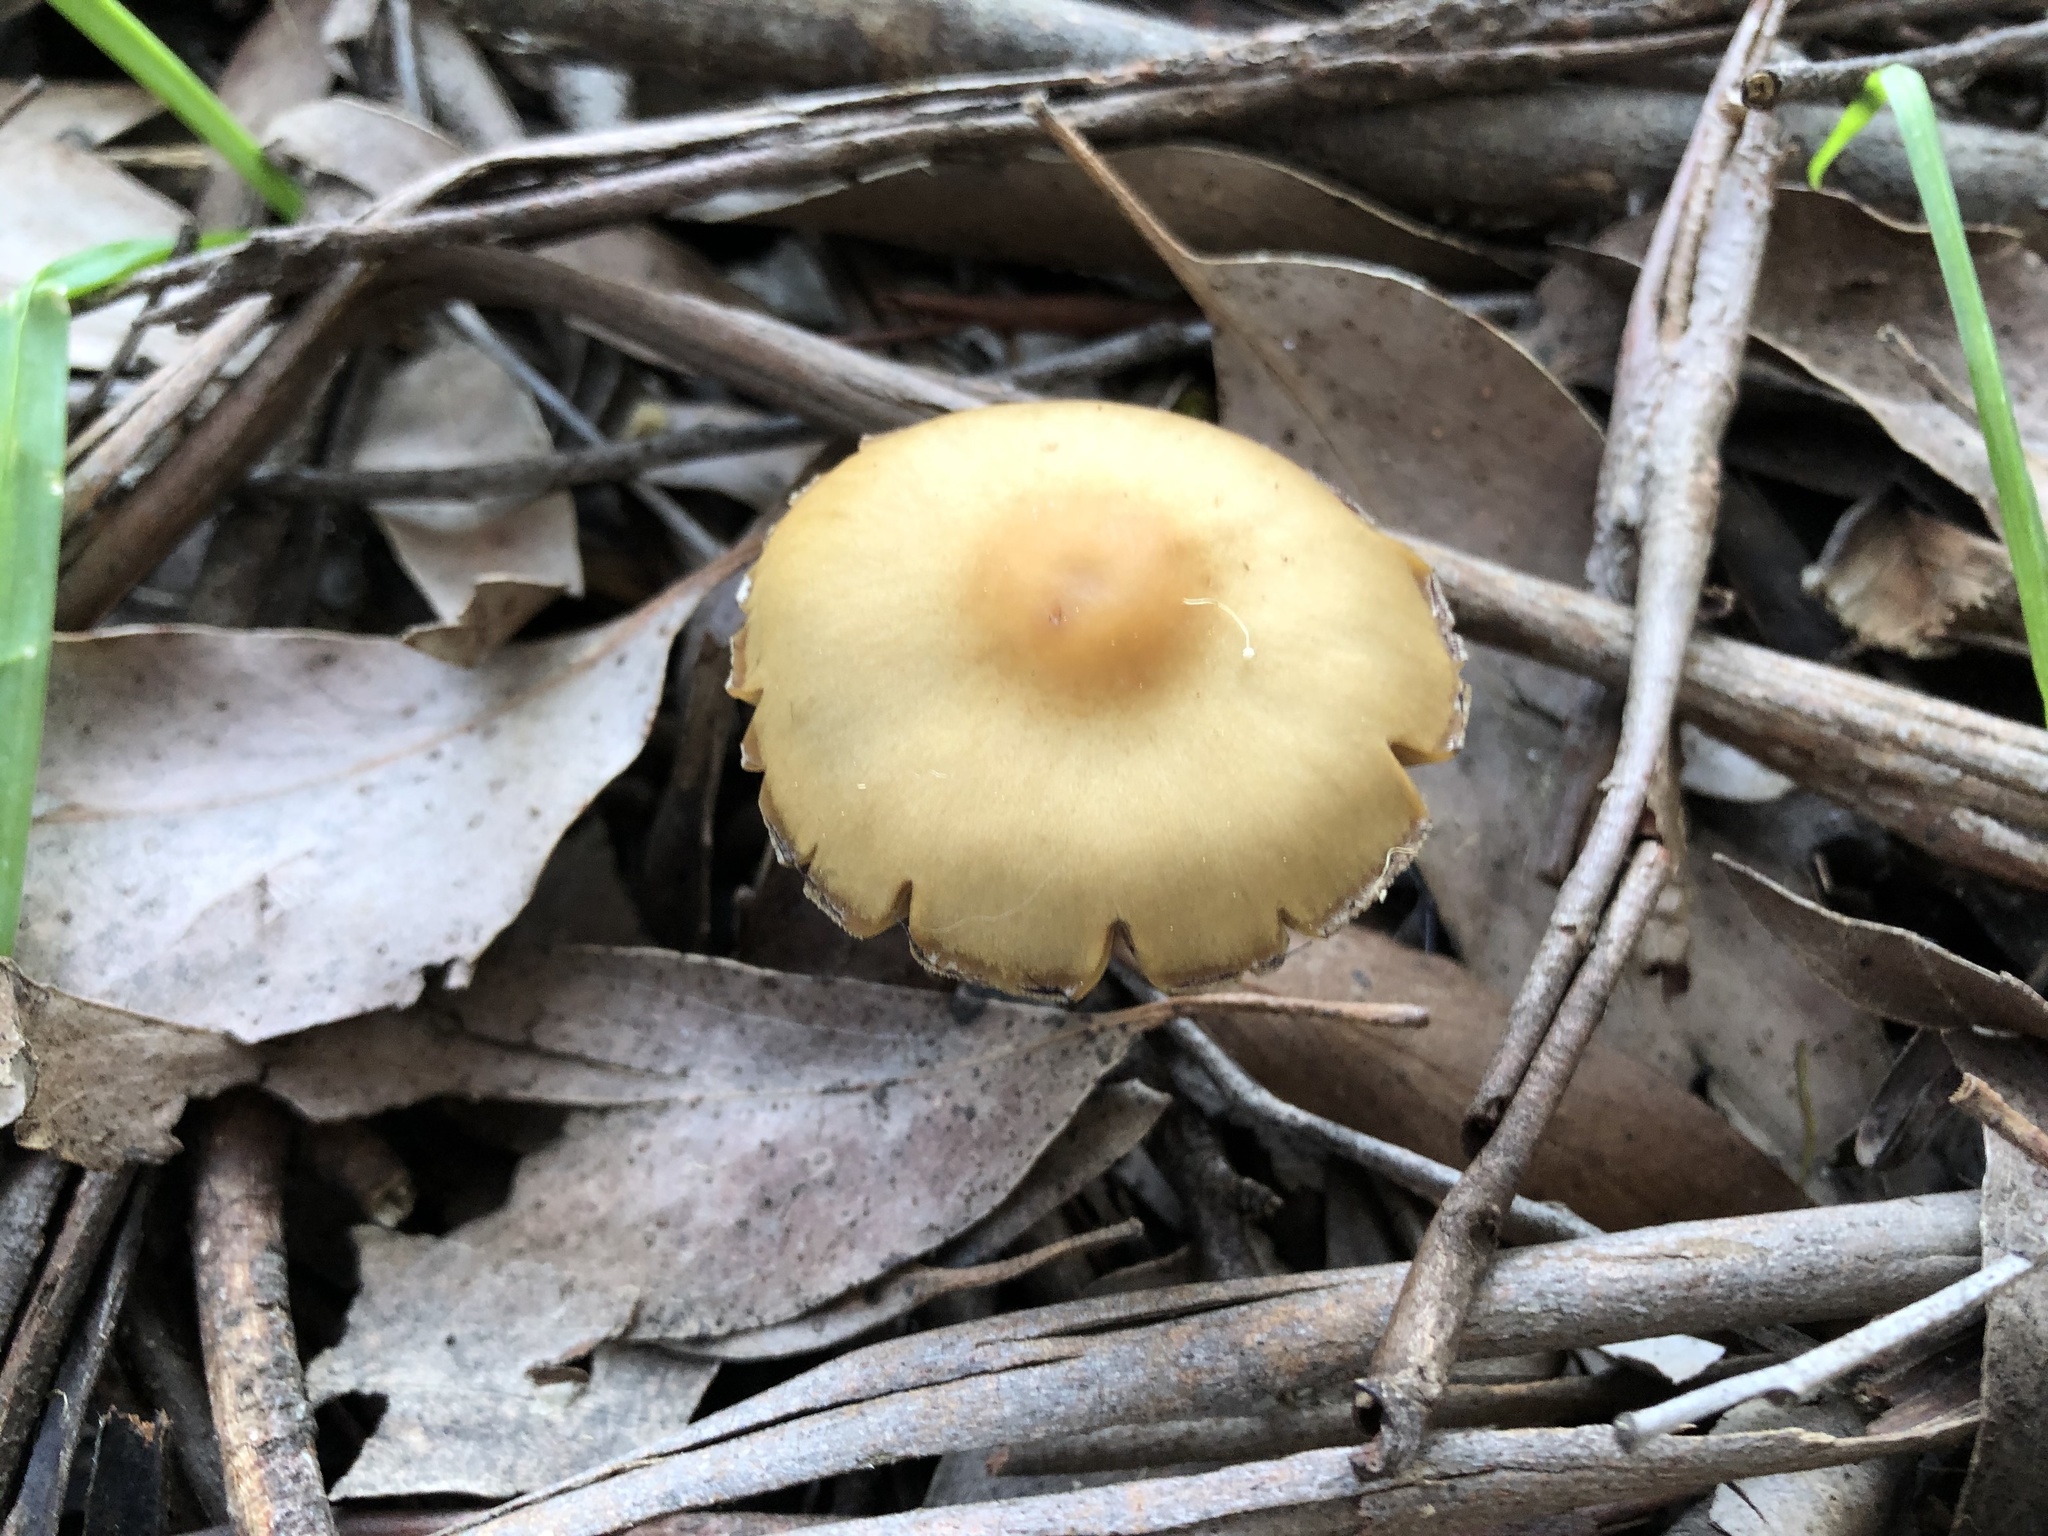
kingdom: Fungi
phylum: Basidiomycota
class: Agaricomycetes
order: Agaricales
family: Hymenogastraceae
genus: Psilocybe
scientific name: Psilocybe subaeruginosa
